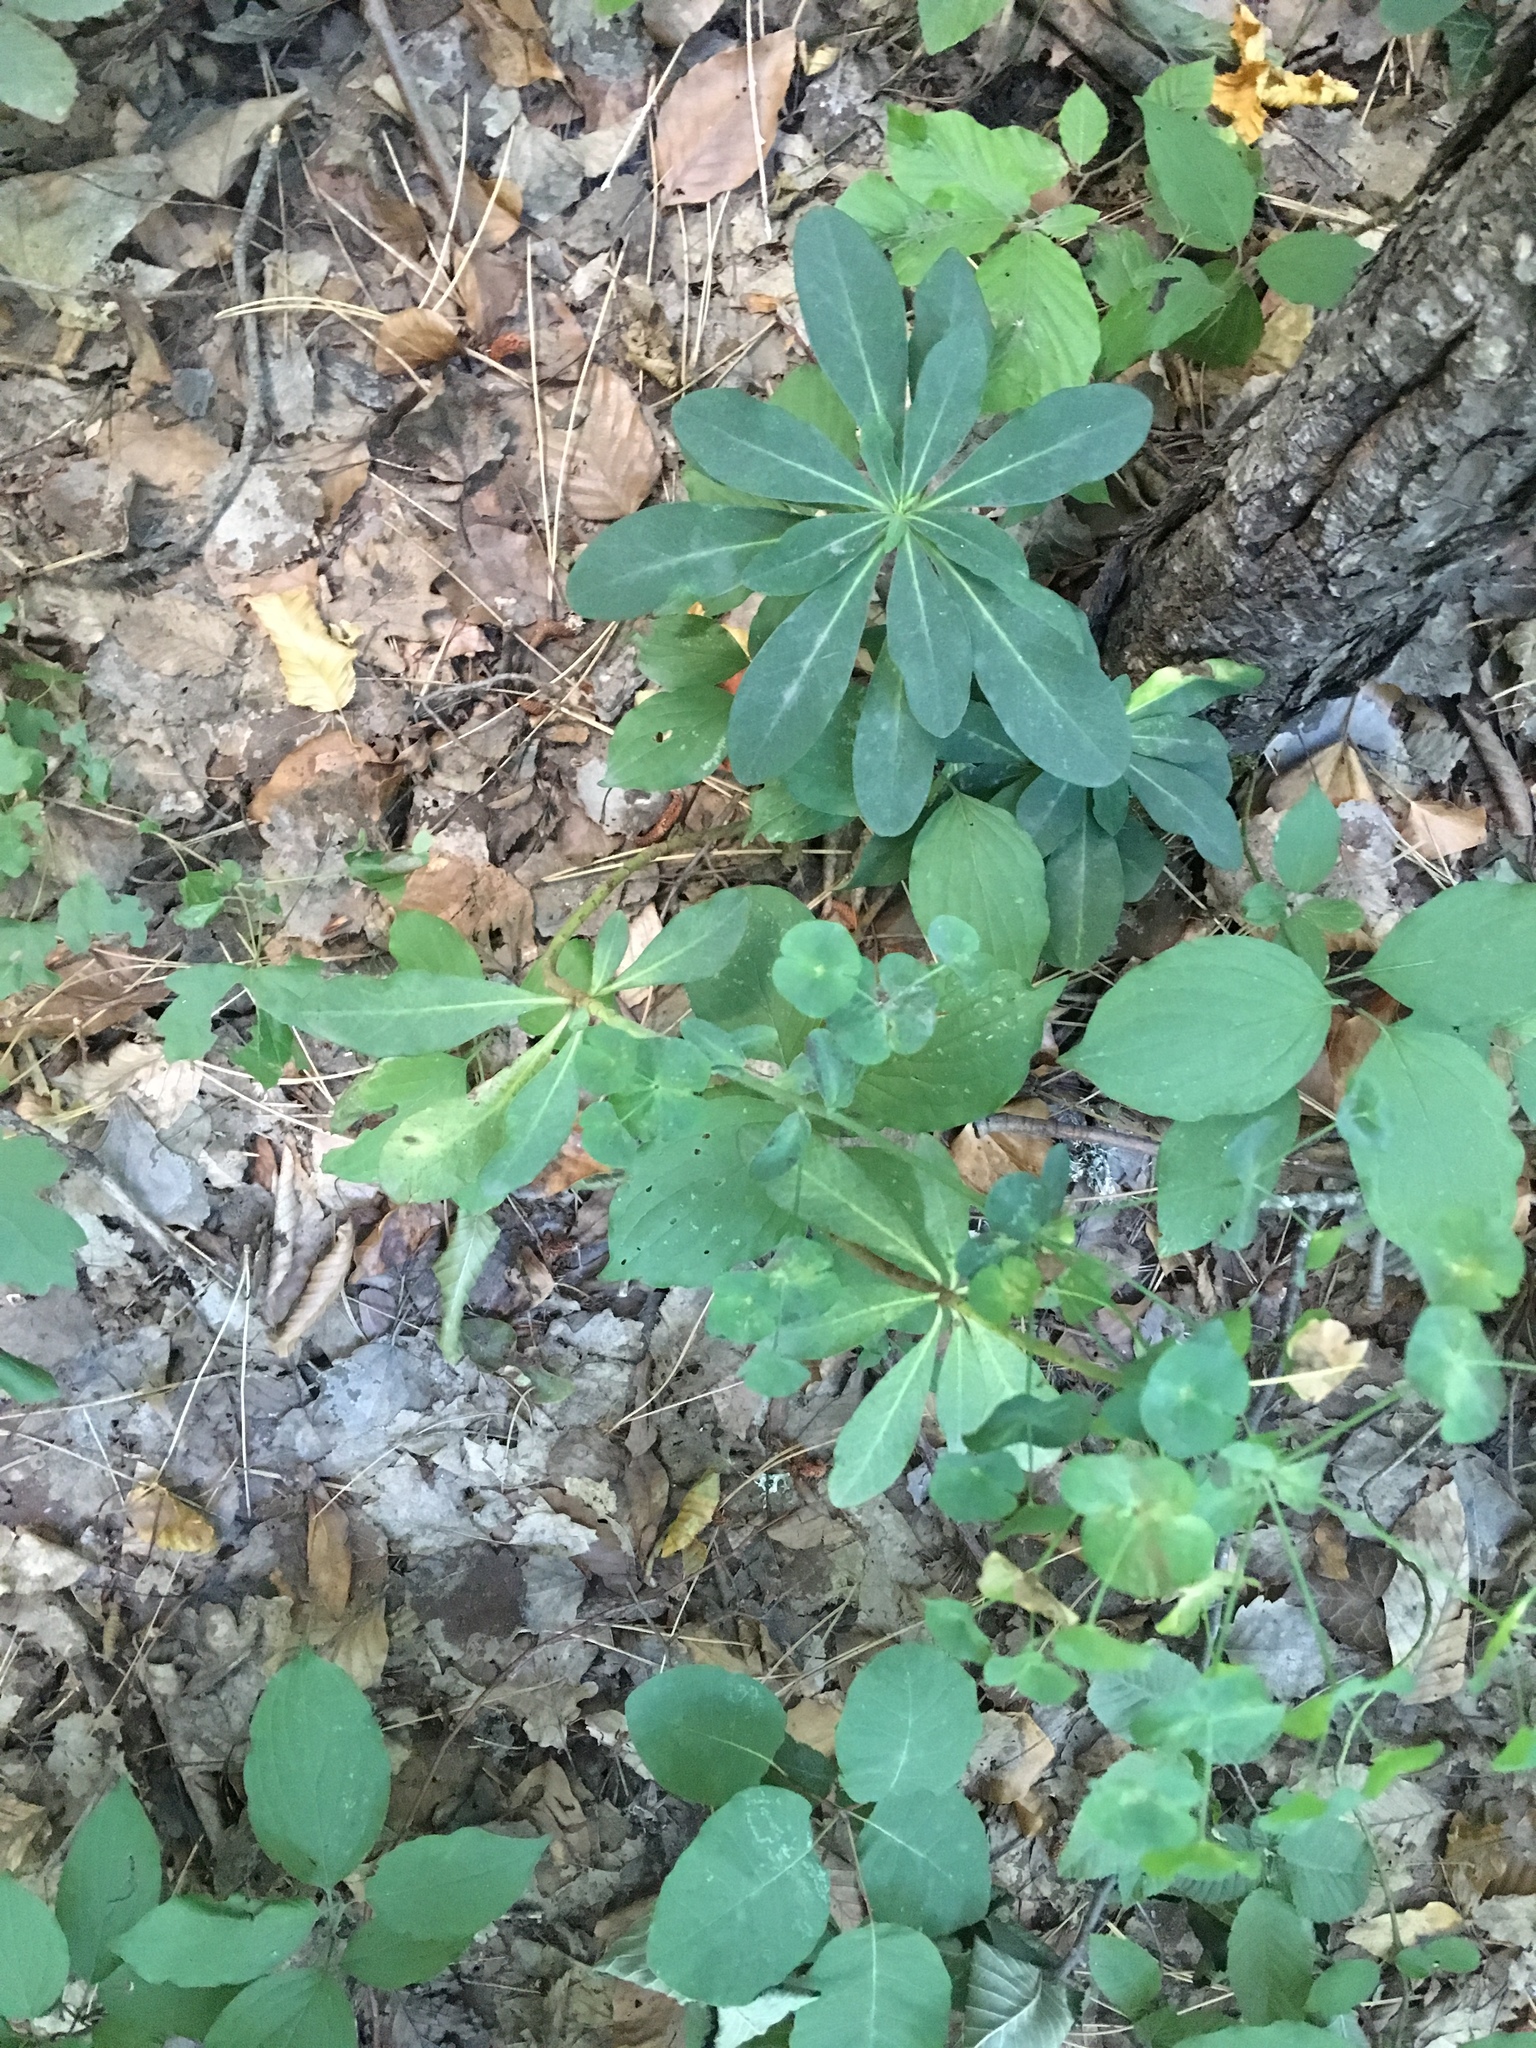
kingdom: Plantae
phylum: Tracheophyta
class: Magnoliopsida
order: Malpighiales
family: Euphorbiaceae
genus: Euphorbia
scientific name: Euphorbia amygdaloides
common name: Wood spurge
